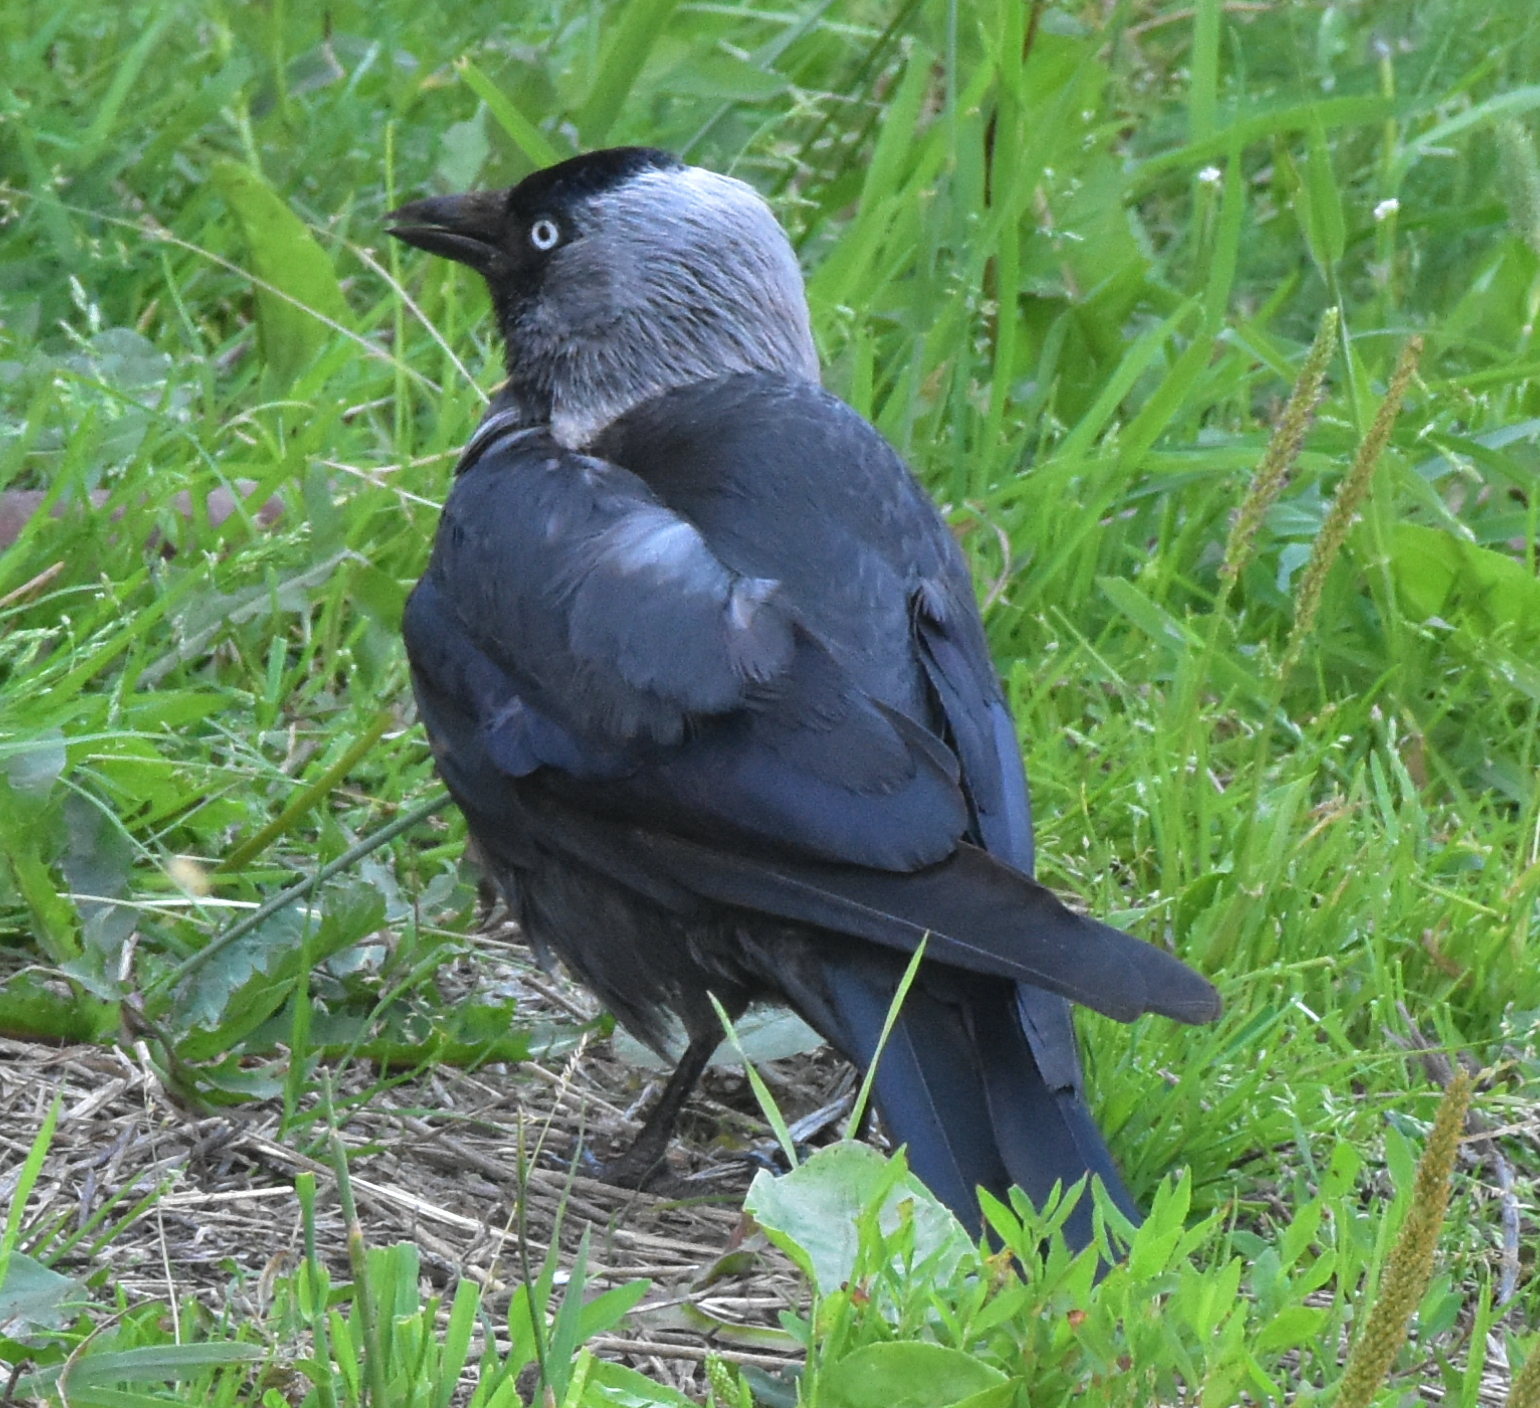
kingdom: Animalia
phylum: Chordata
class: Aves
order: Passeriformes
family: Corvidae
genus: Coloeus
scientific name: Coloeus monedula
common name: Western jackdaw
